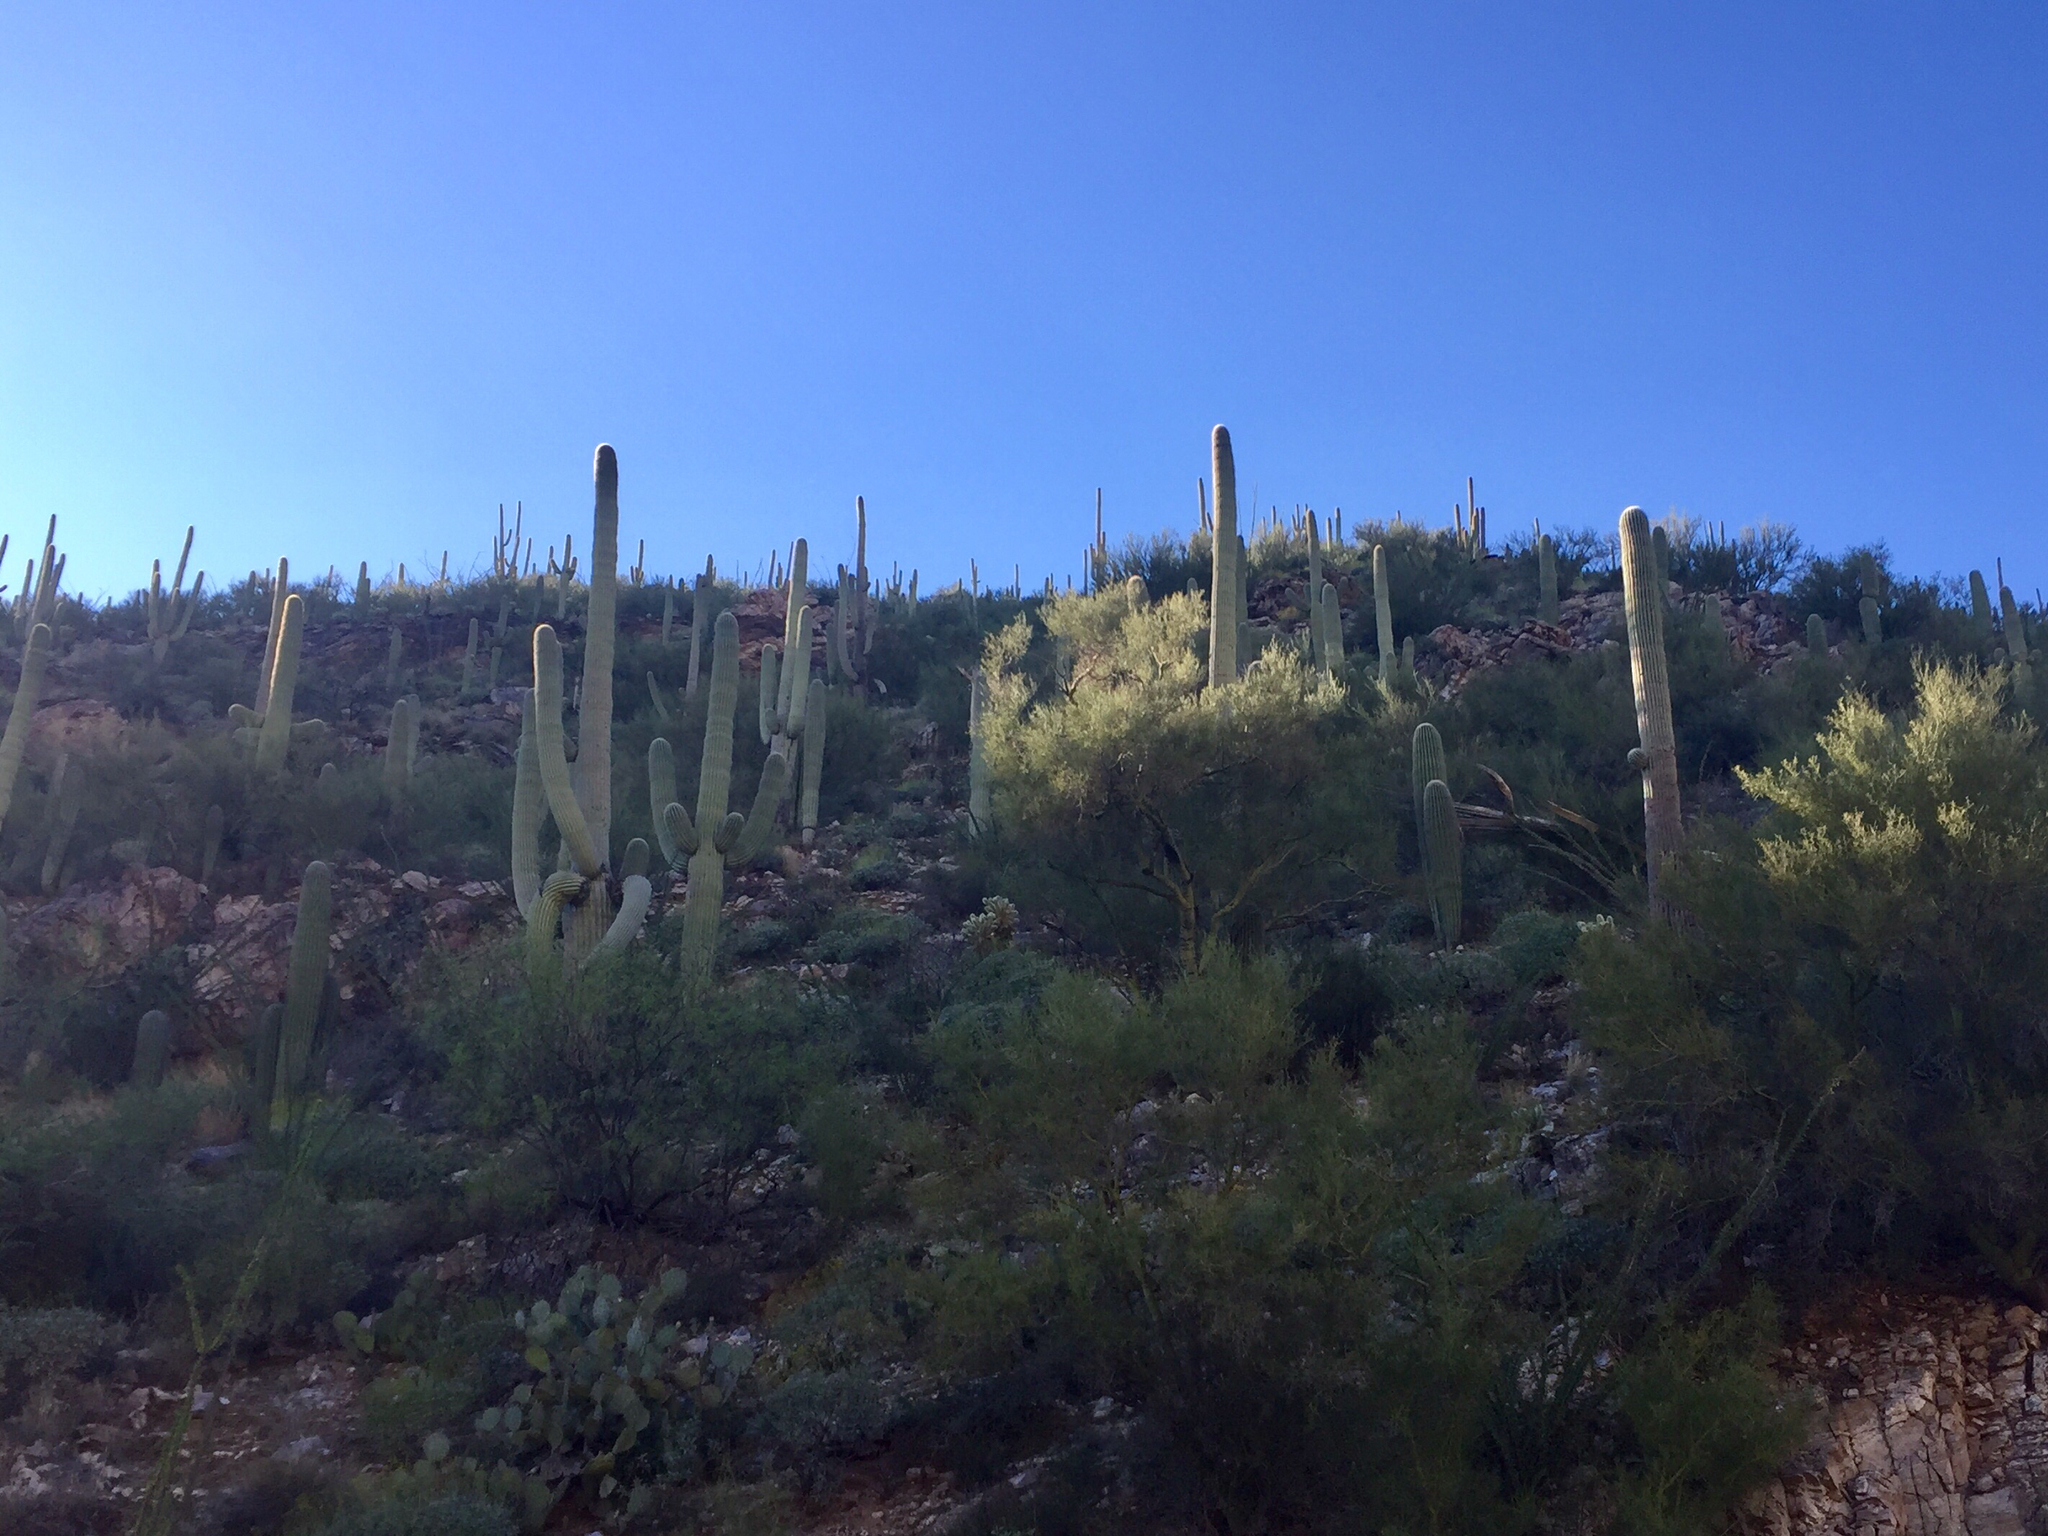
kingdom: Plantae
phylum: Tracheophyta
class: Magnoliopsida
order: Caryophyllales
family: Cactaceae
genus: Carnegiea
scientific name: Carnegiea gigantea
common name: Saguaro
